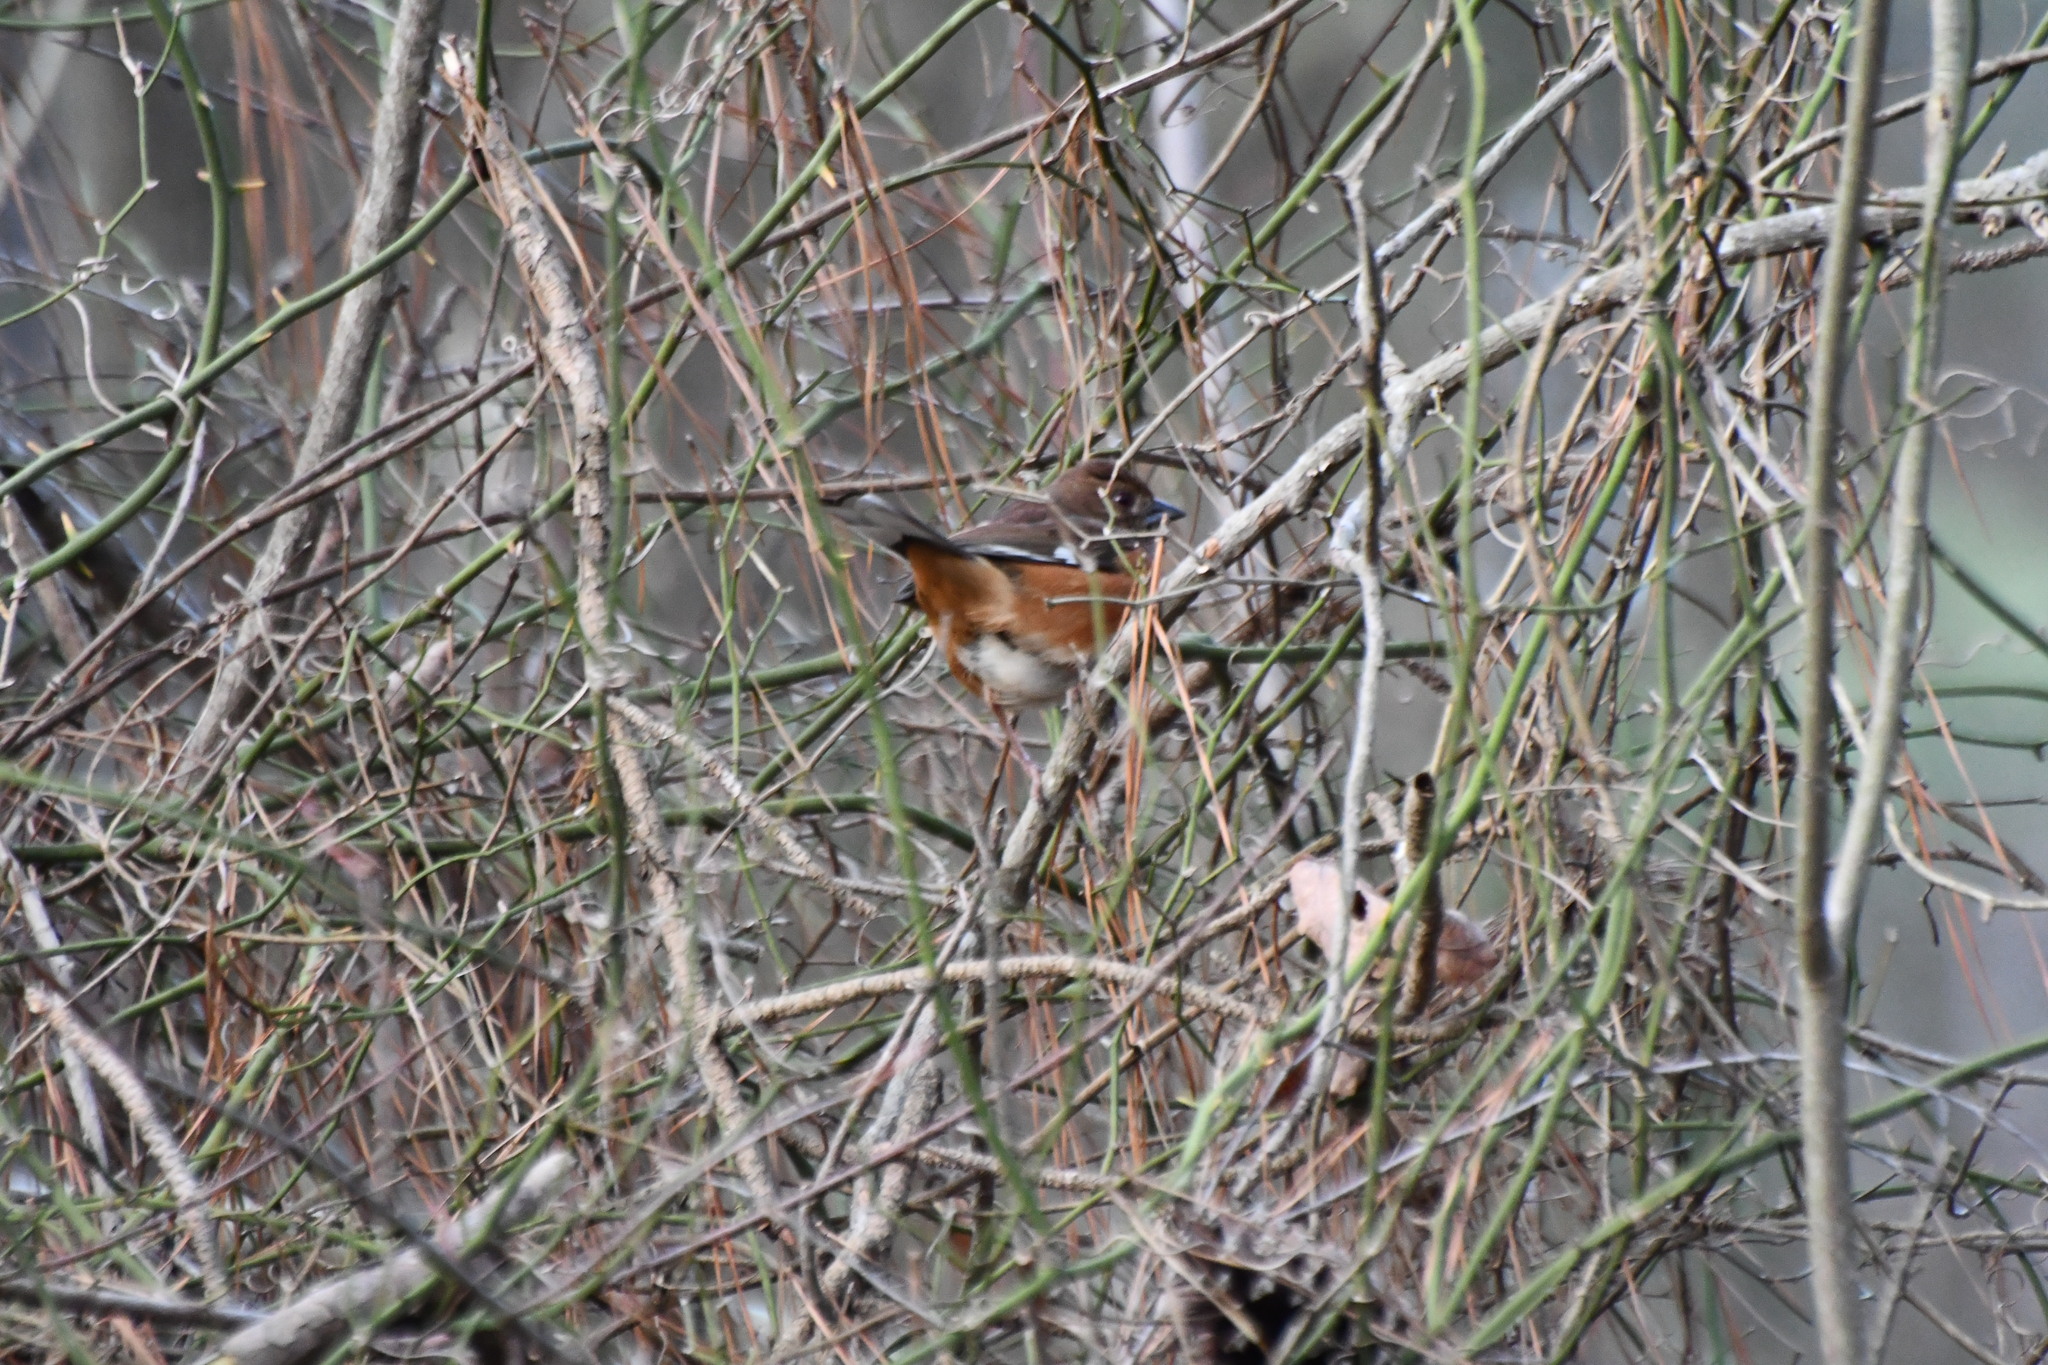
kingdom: Animalia
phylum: Chordata
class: Aves
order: Passeriformes
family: Passerellidae
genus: Pipilo
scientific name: Pipilo erythrophthalmus
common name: Eastern towhee
